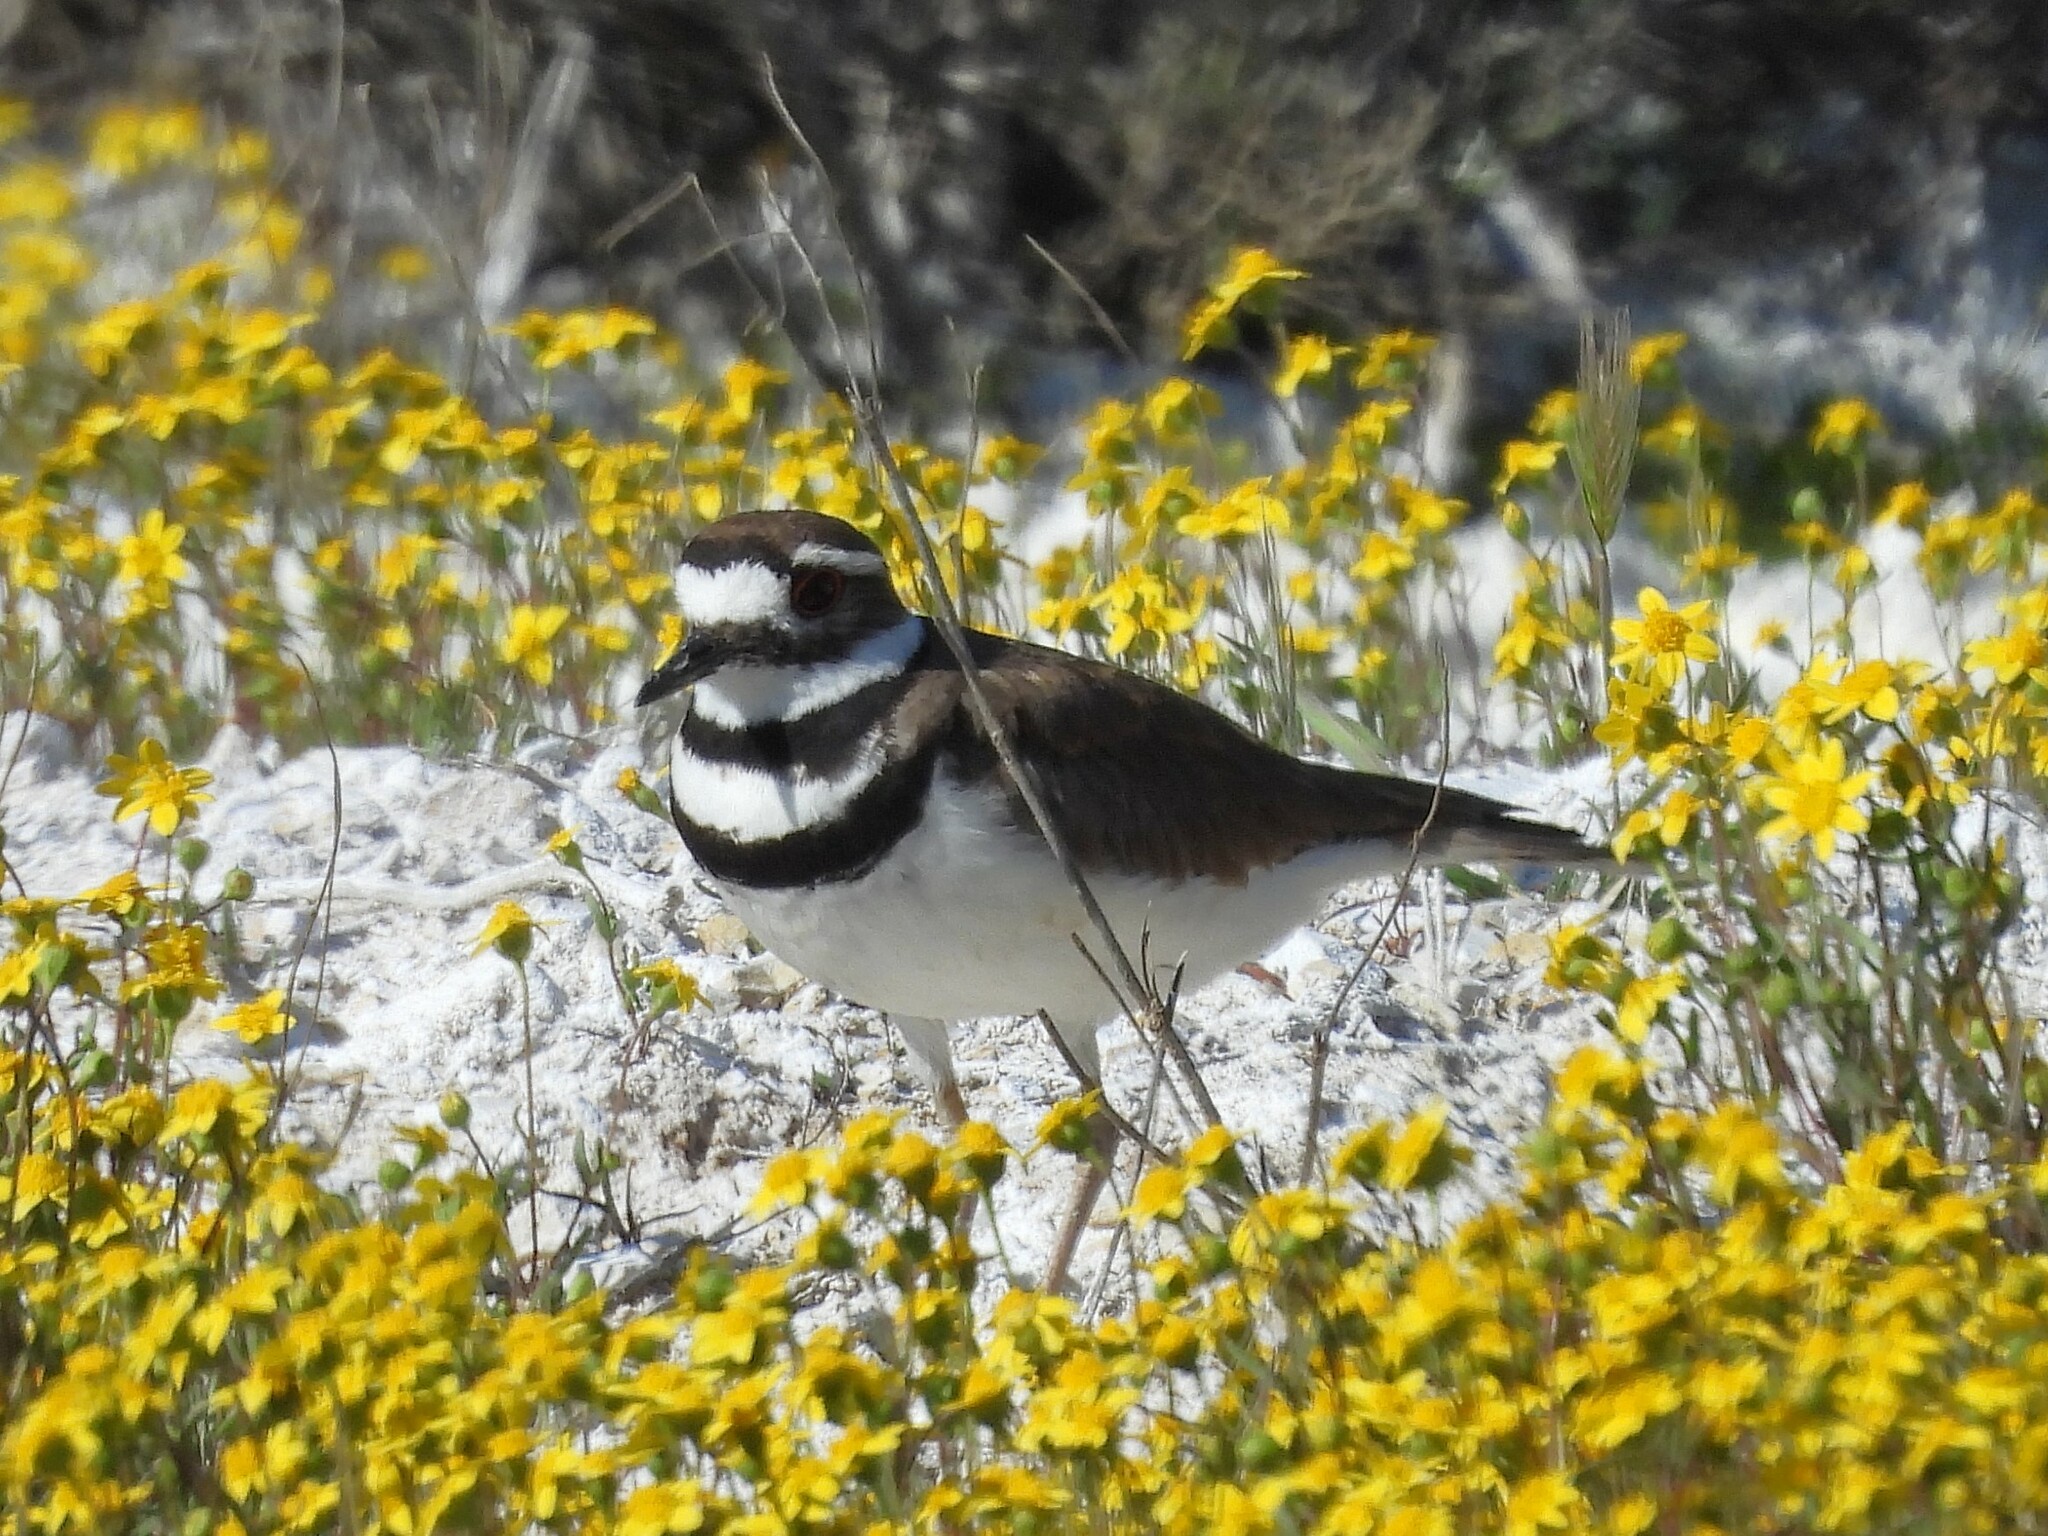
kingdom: Animalia
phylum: Chordata
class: Aves
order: Charadriiformes
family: Charadriidae
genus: Charadrius
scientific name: Charadrius vociferus
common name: Killdeer
